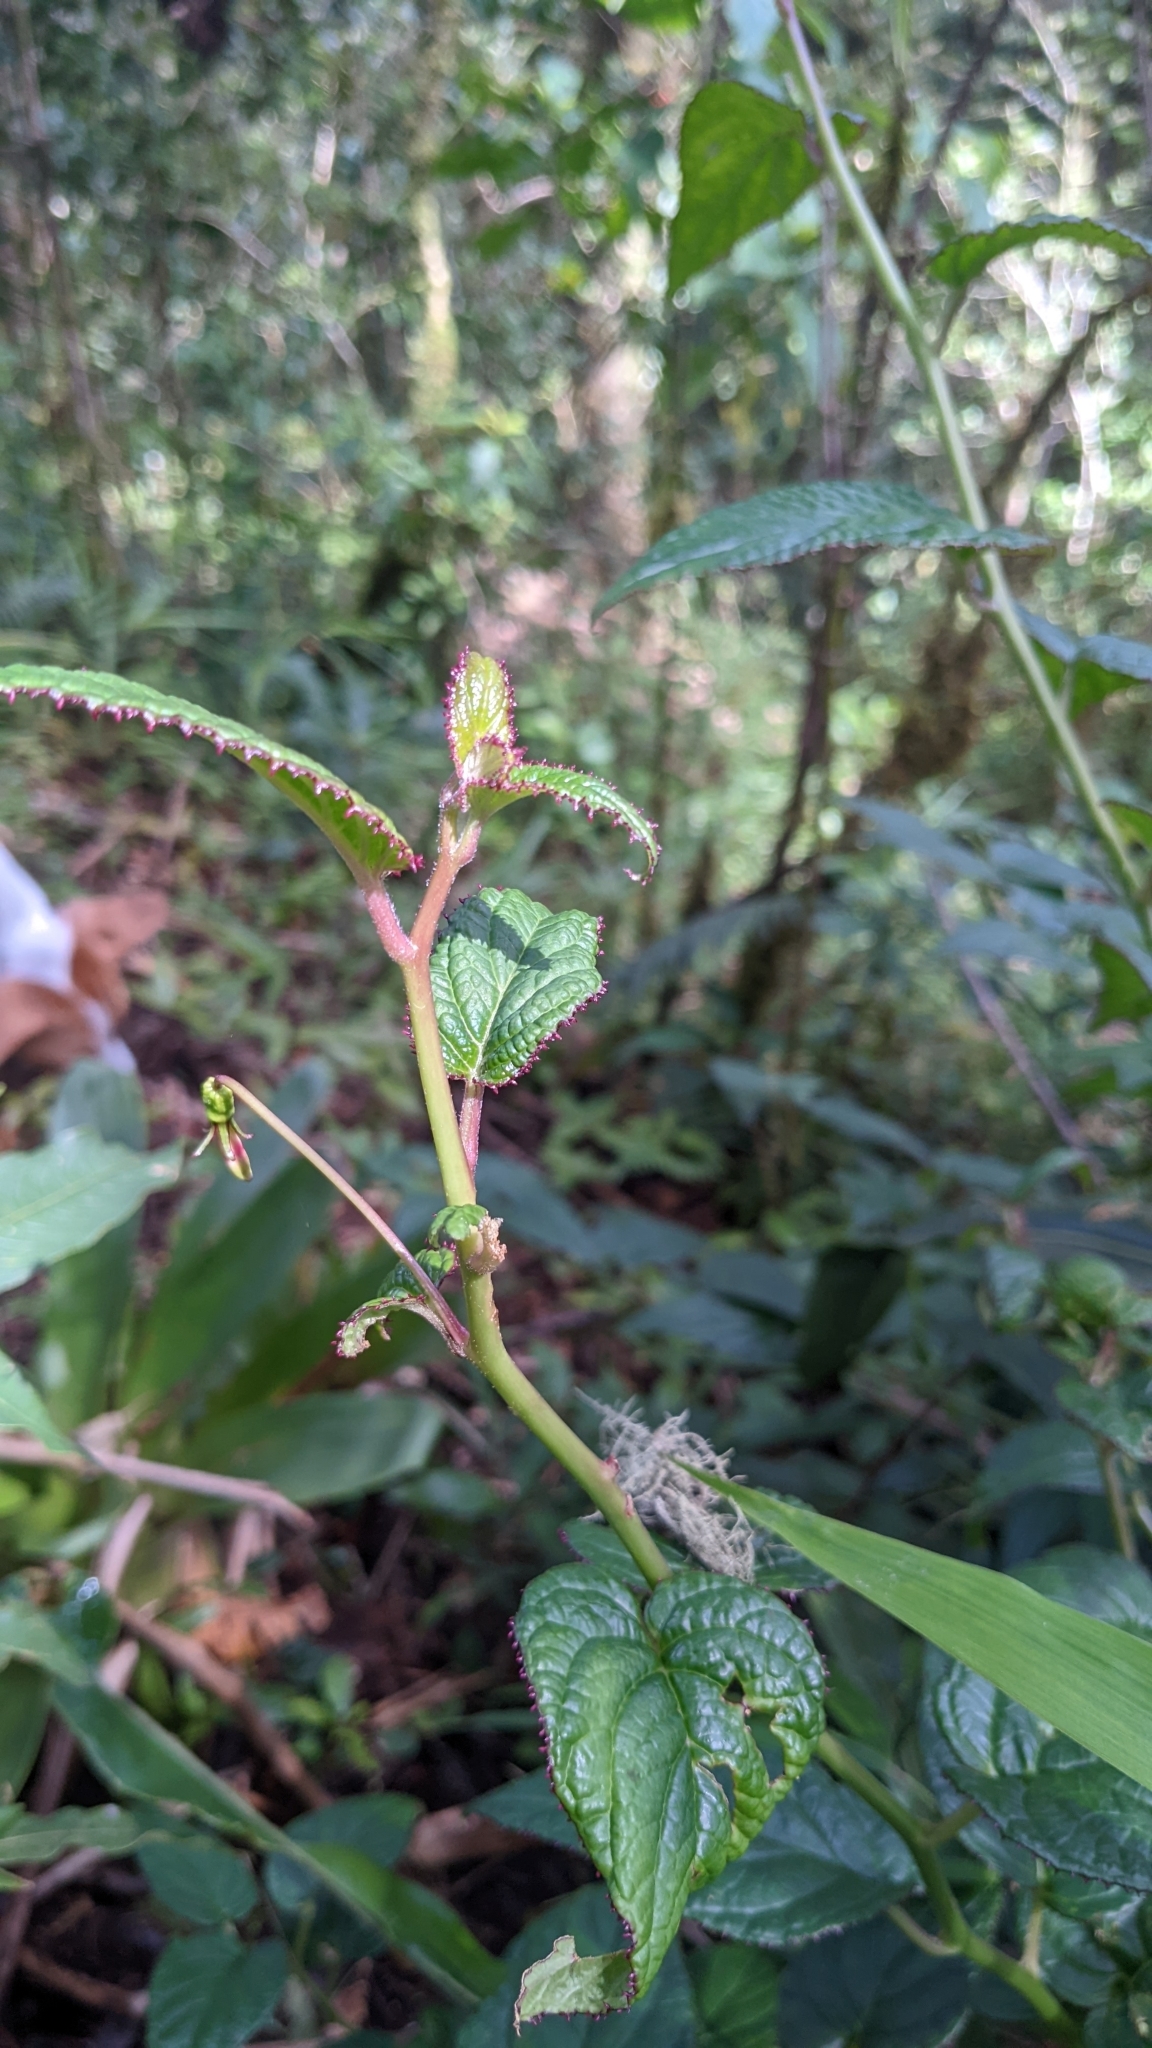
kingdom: Plantae
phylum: Tracheophyta
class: Magnoliopsida
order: Asterales
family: Campanulaceae
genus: Centropogon
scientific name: Centropogon costaricae
